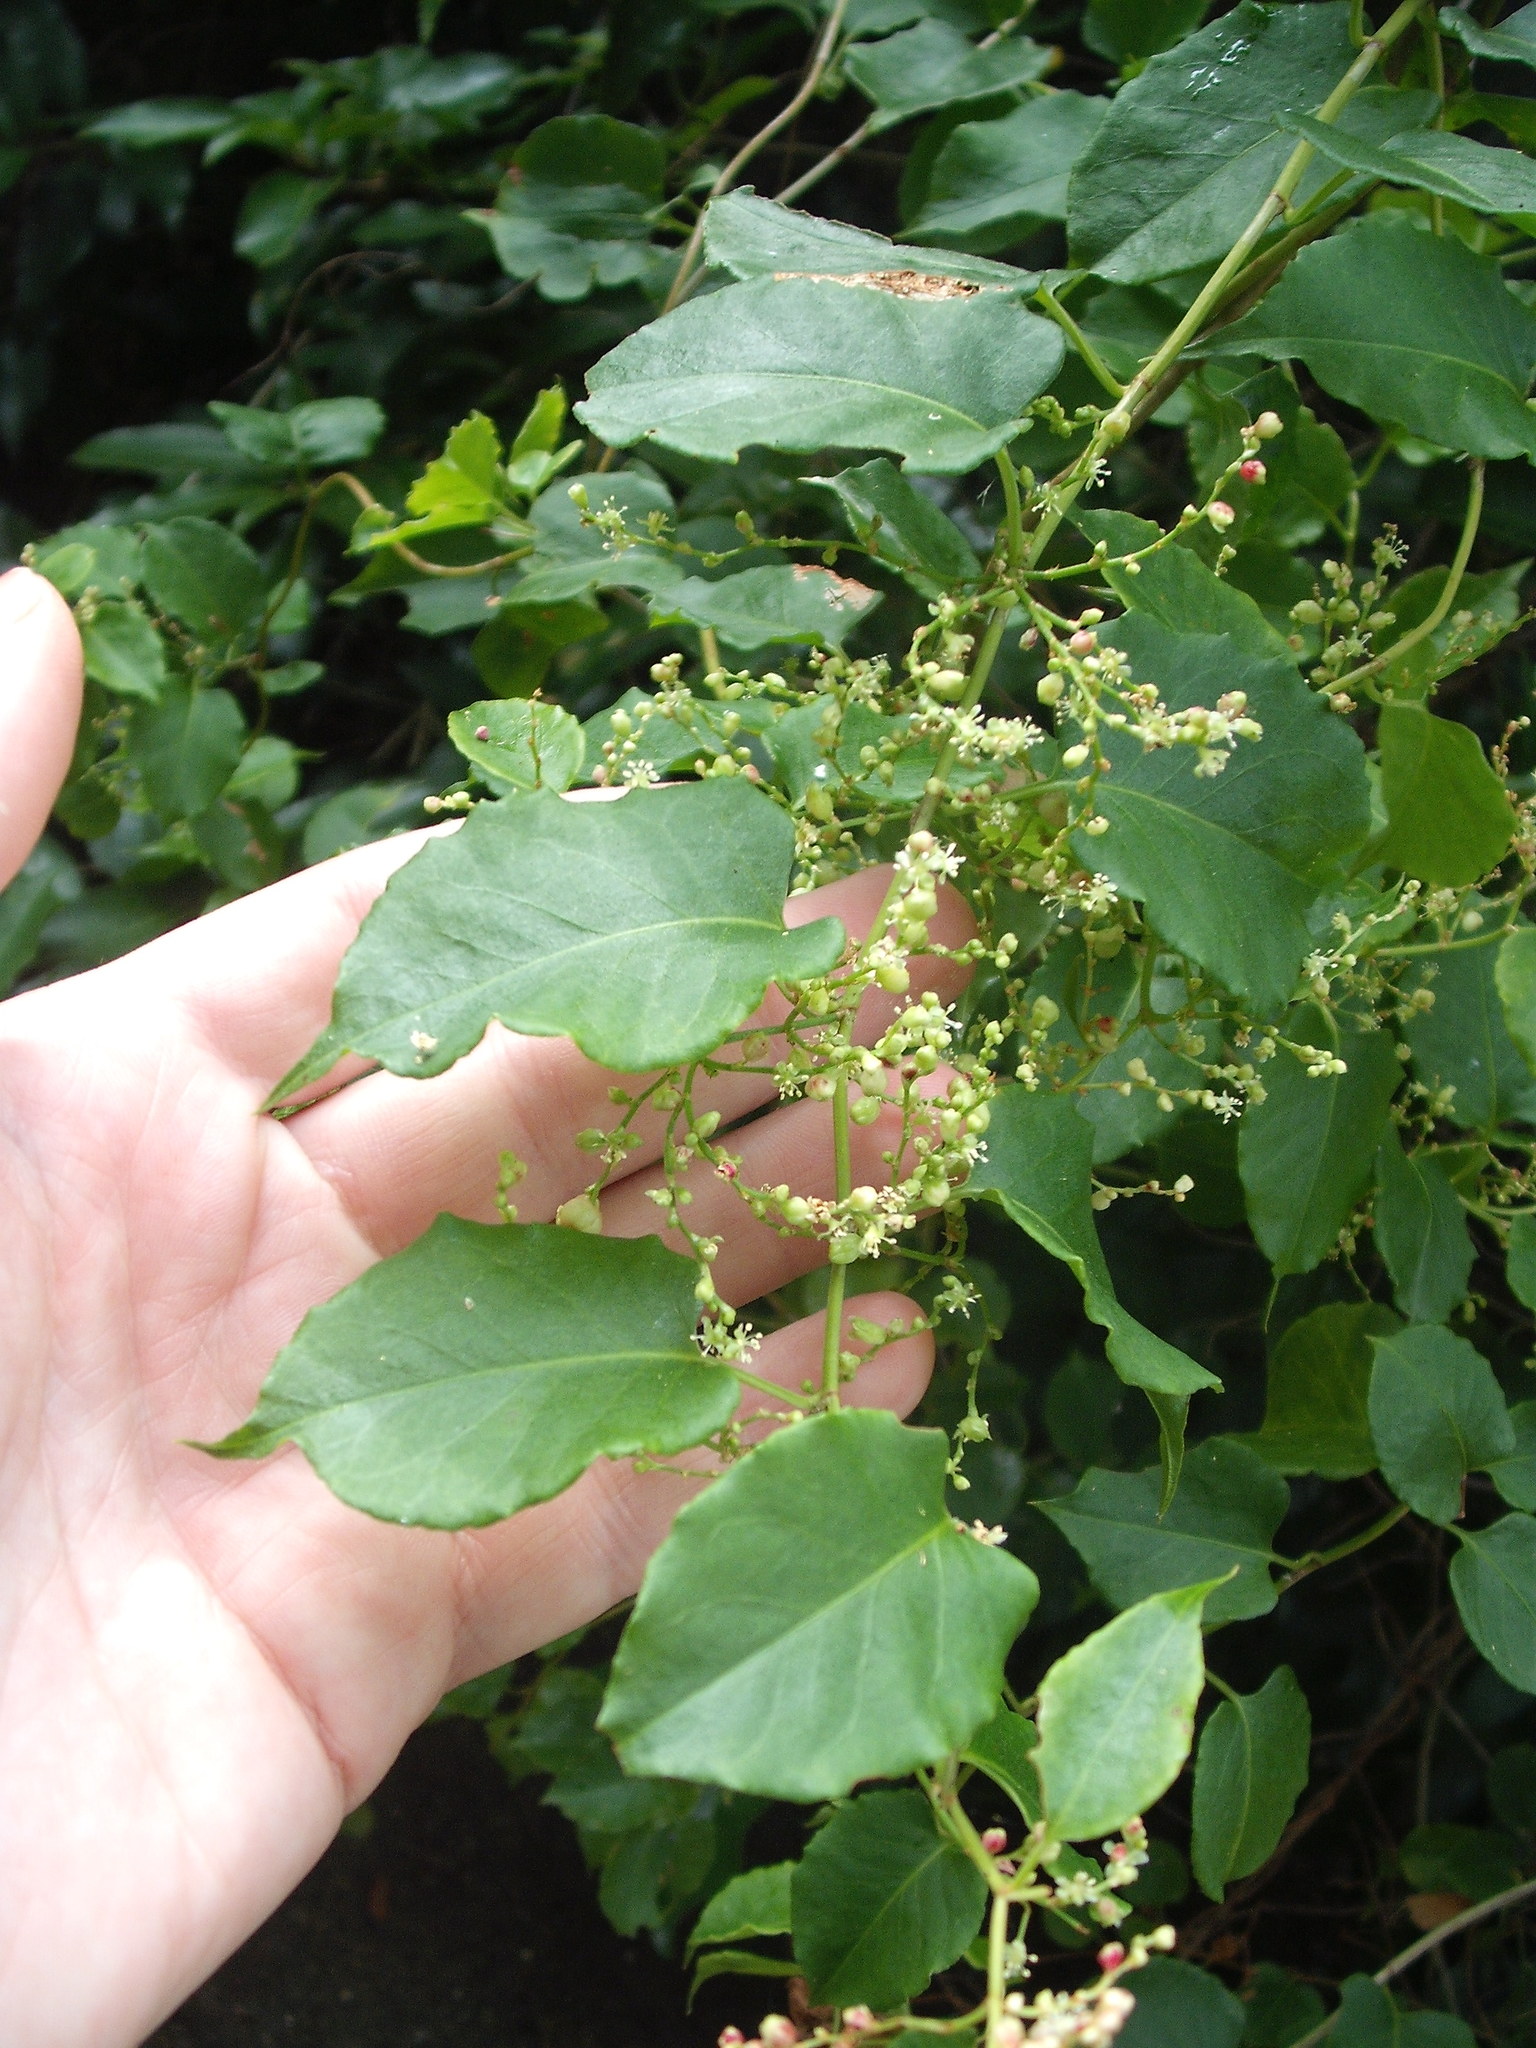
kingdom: Plantae
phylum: Tracheophyta
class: Magnoliopsida
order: Caryophyllales
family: Polygonaceae
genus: Muehlenbeckia
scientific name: Muehlenbeckia australis
